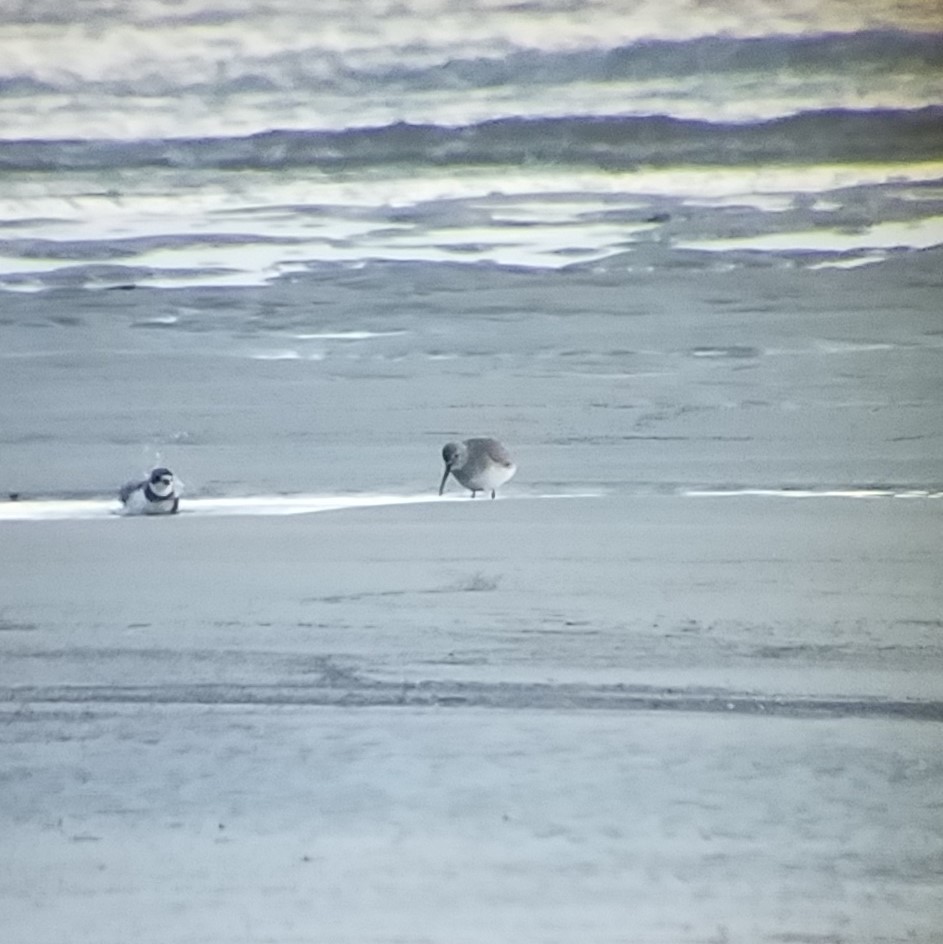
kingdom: Animalia
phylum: Chordata
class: Aves
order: Charadriiformes
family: Scolopacidae
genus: Calidris
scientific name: Calidris alpina
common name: Dunlin
